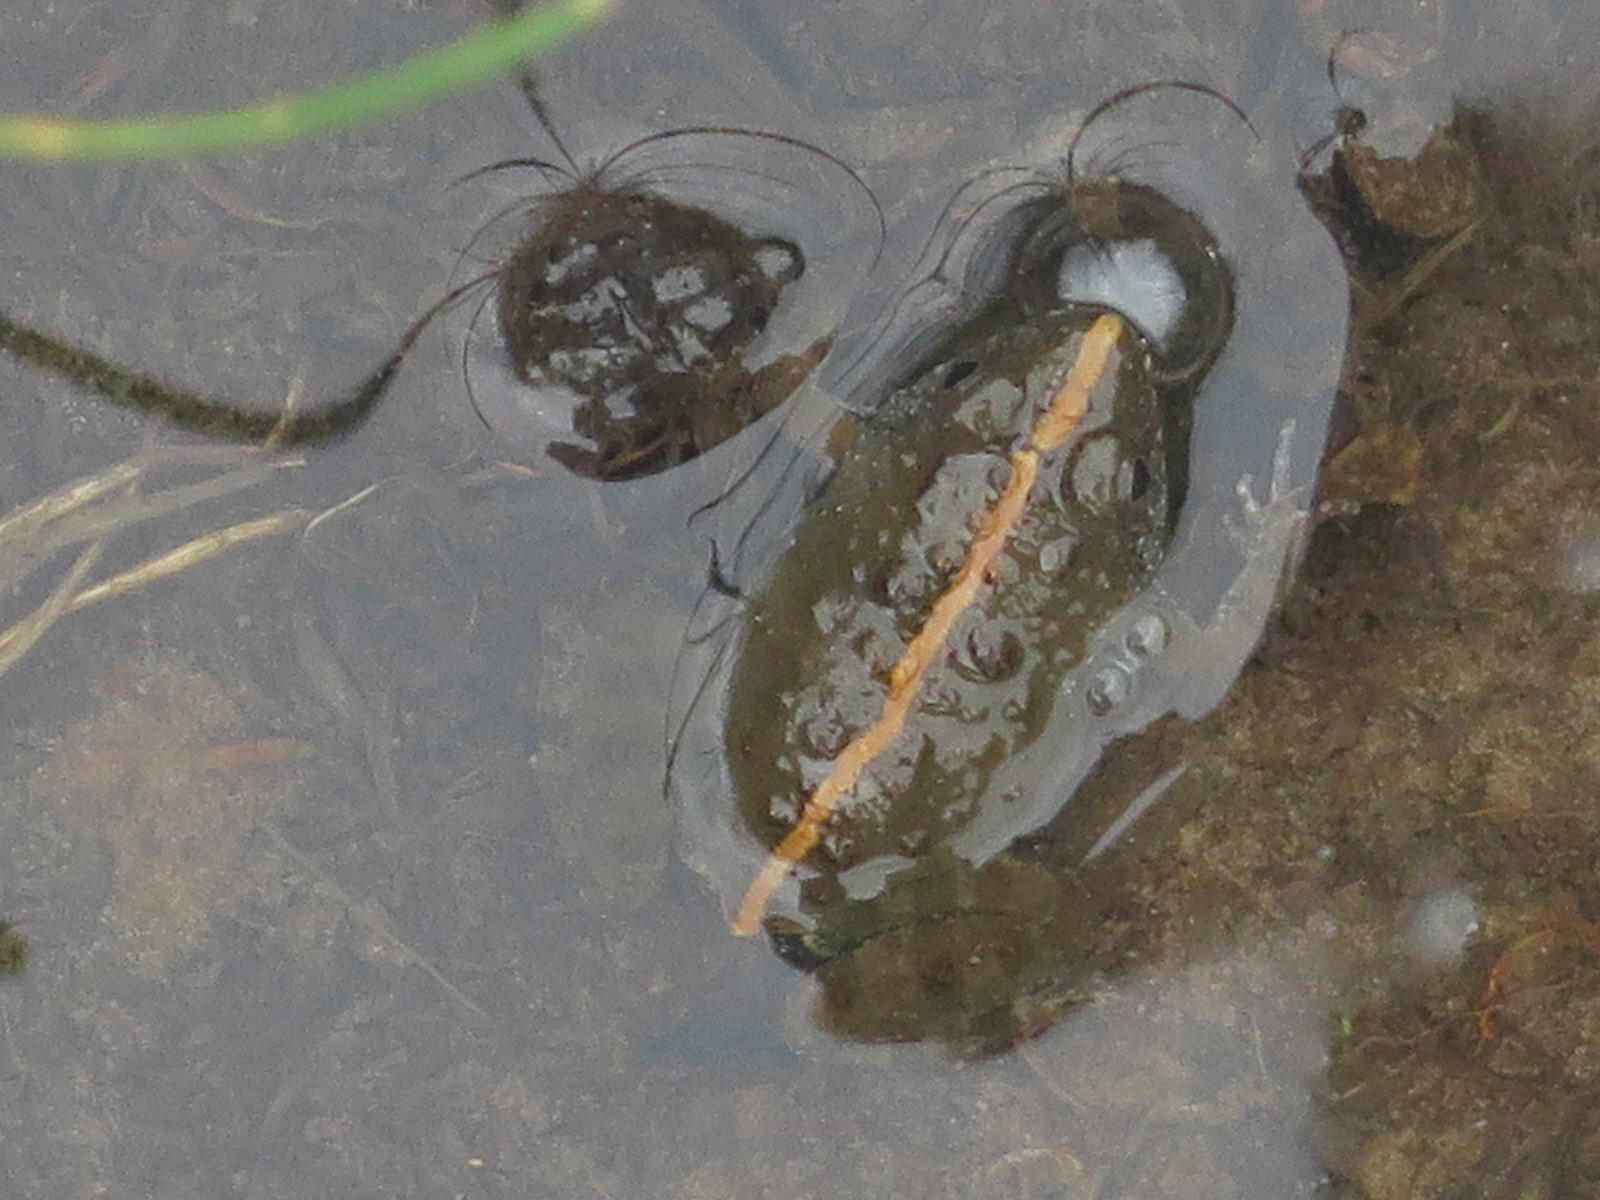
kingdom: Animalia
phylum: Chordata
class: Amphibia
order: Anura
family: Phrynobatrachidae
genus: Phrynobatrachus
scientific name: Phrynobatrachus natalensis
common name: Snoring puddle frog
